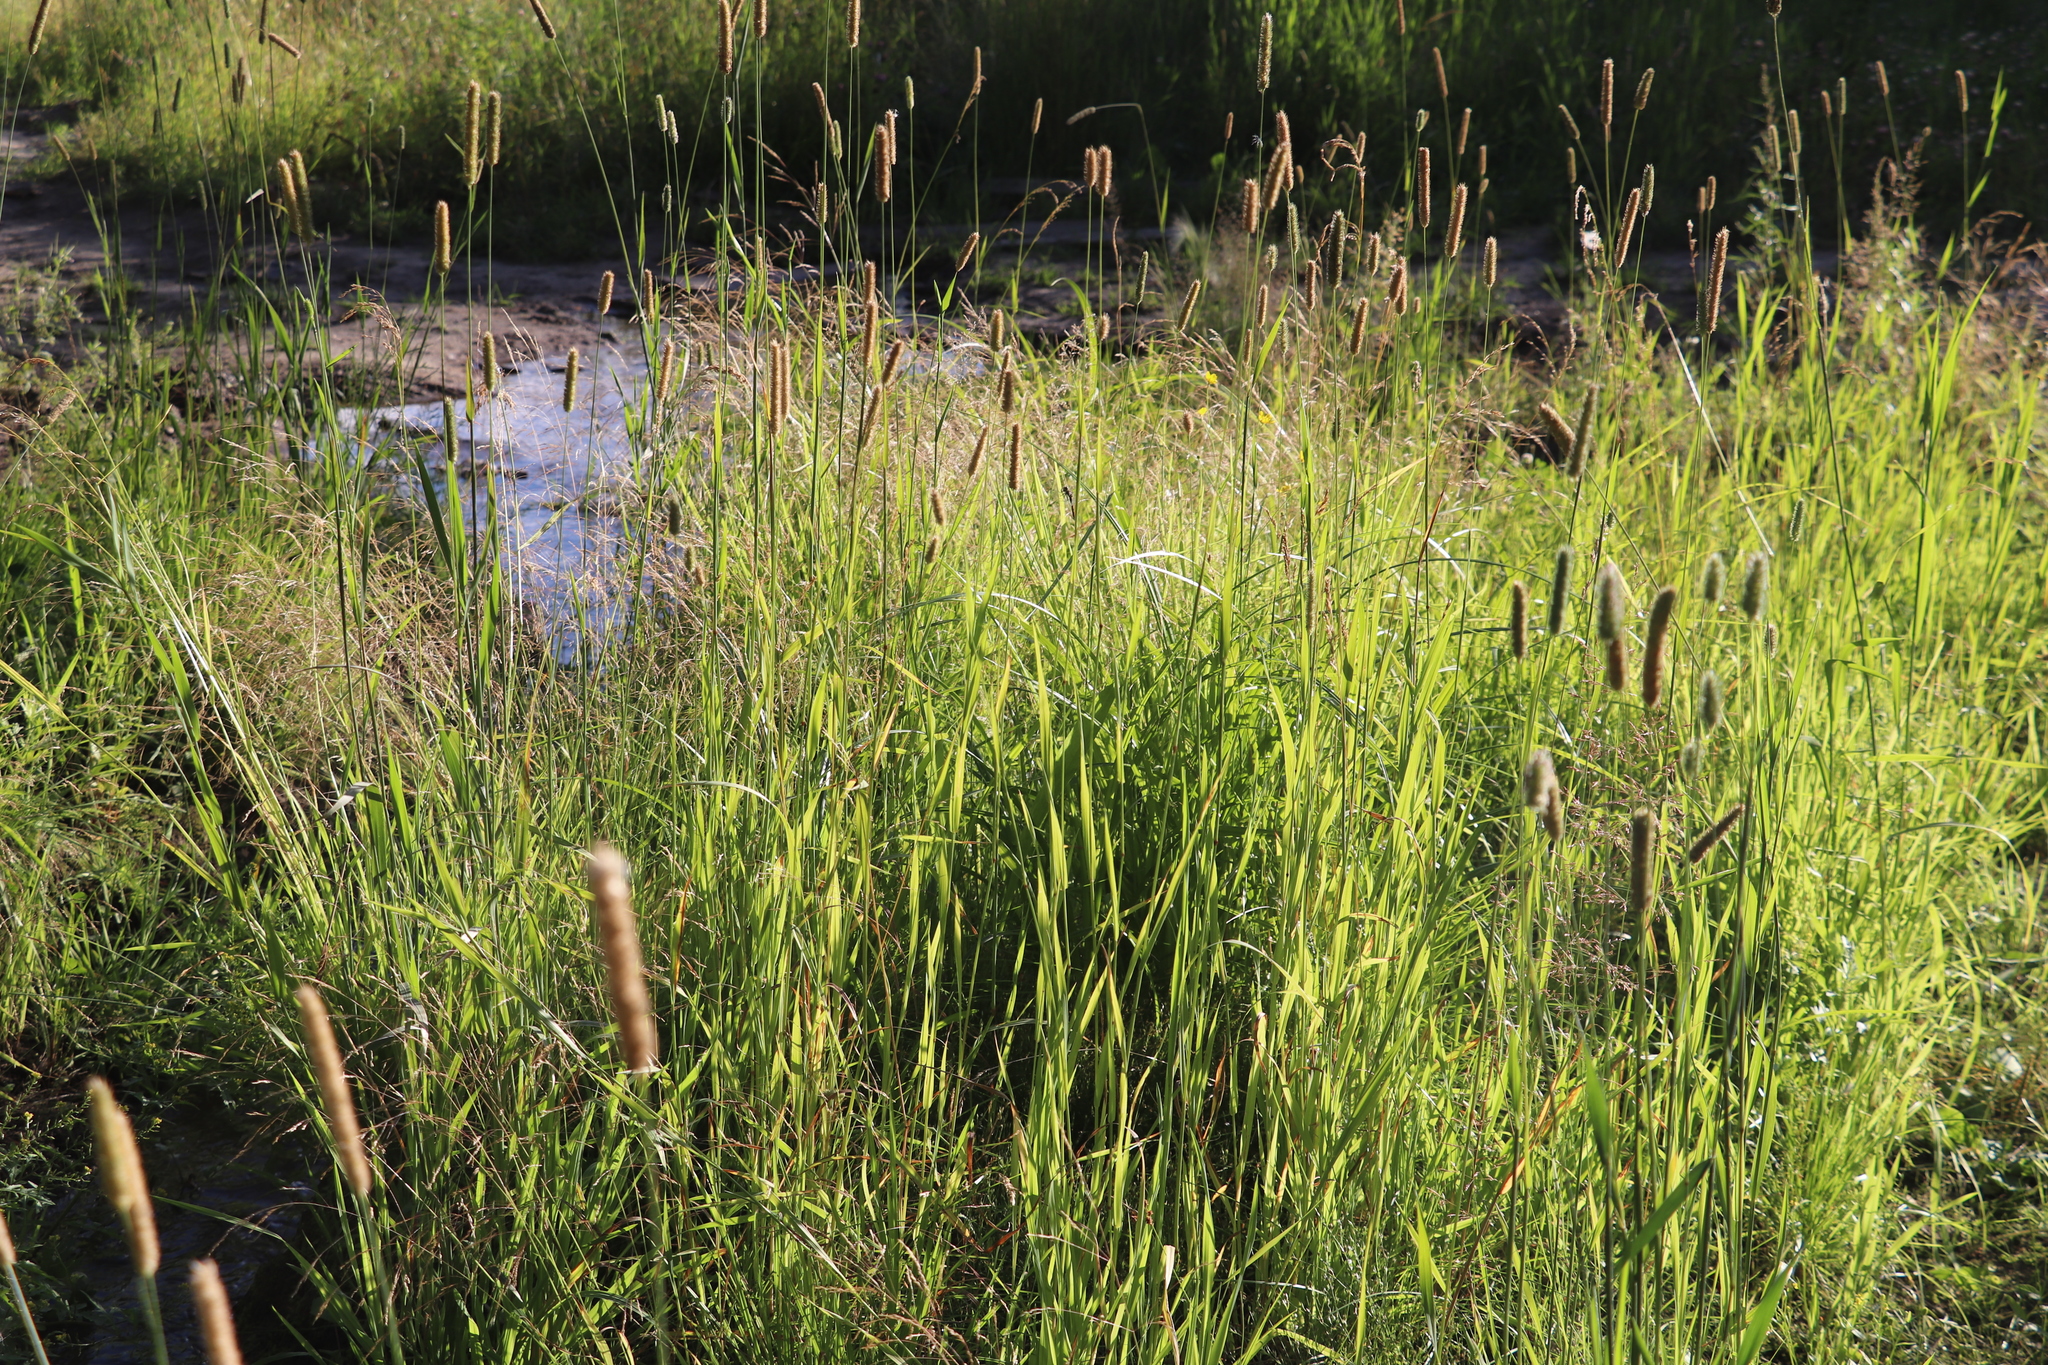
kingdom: Plantae
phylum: Tracheophyta
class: Liliopsida
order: Poales
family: Poaceae
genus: Phleum
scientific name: Phleum pratense
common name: Timothy grass
